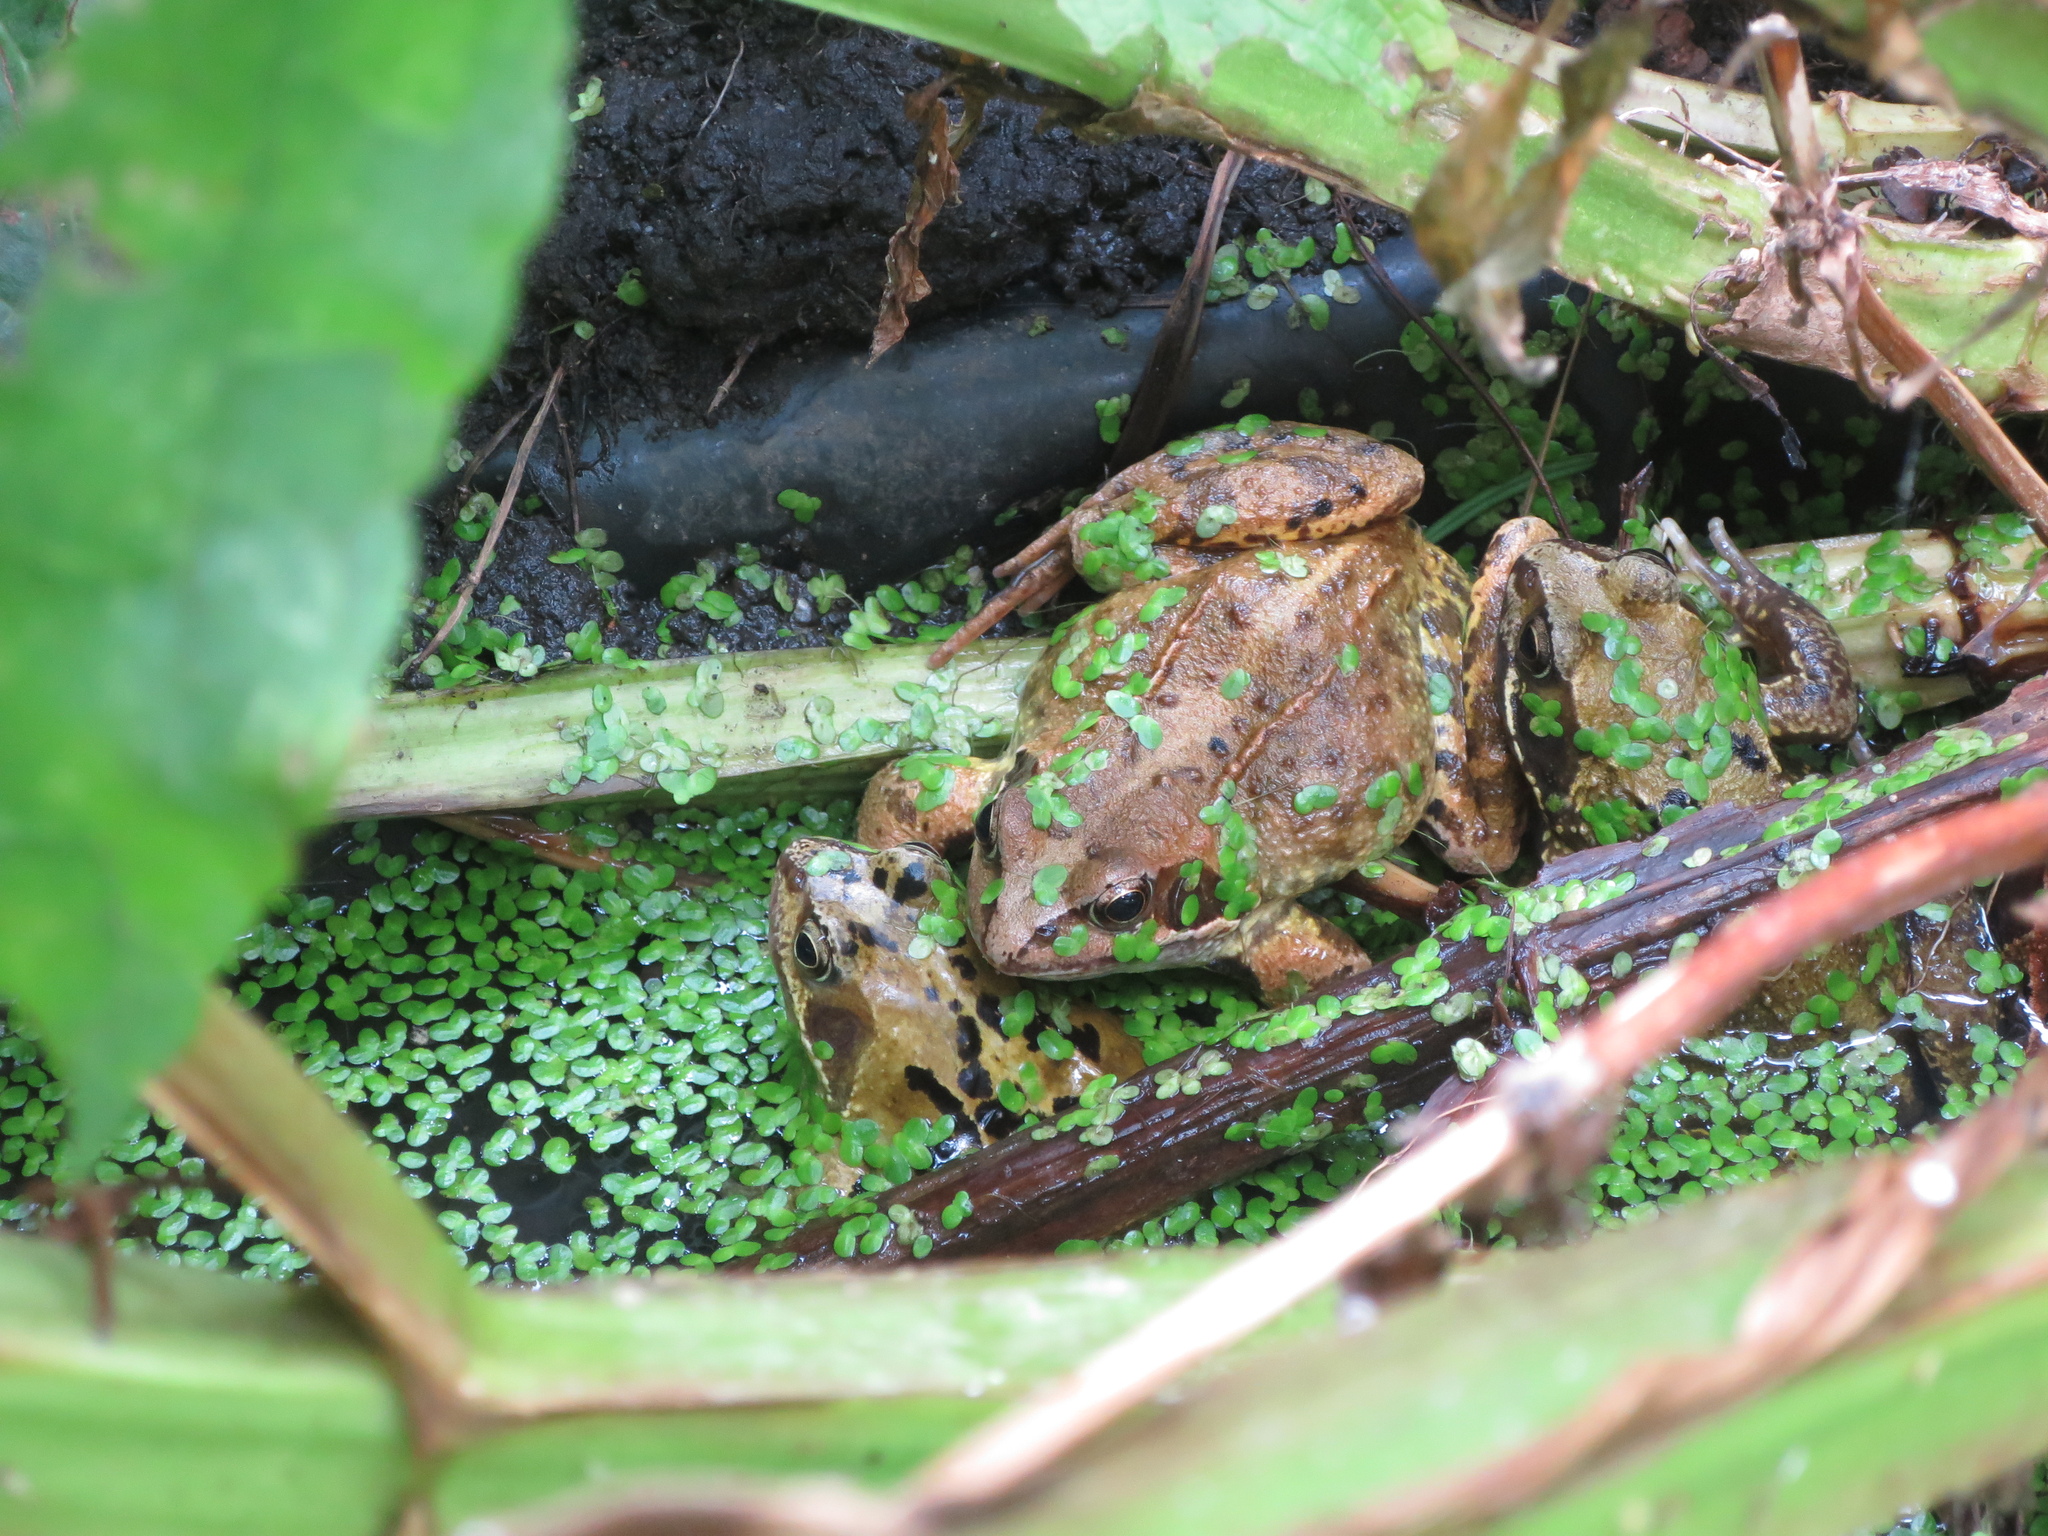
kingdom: Animalia
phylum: Chordata
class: Amphibia
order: Anura
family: Ranidae
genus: Rana
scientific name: Rana temporaria
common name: Common frog
